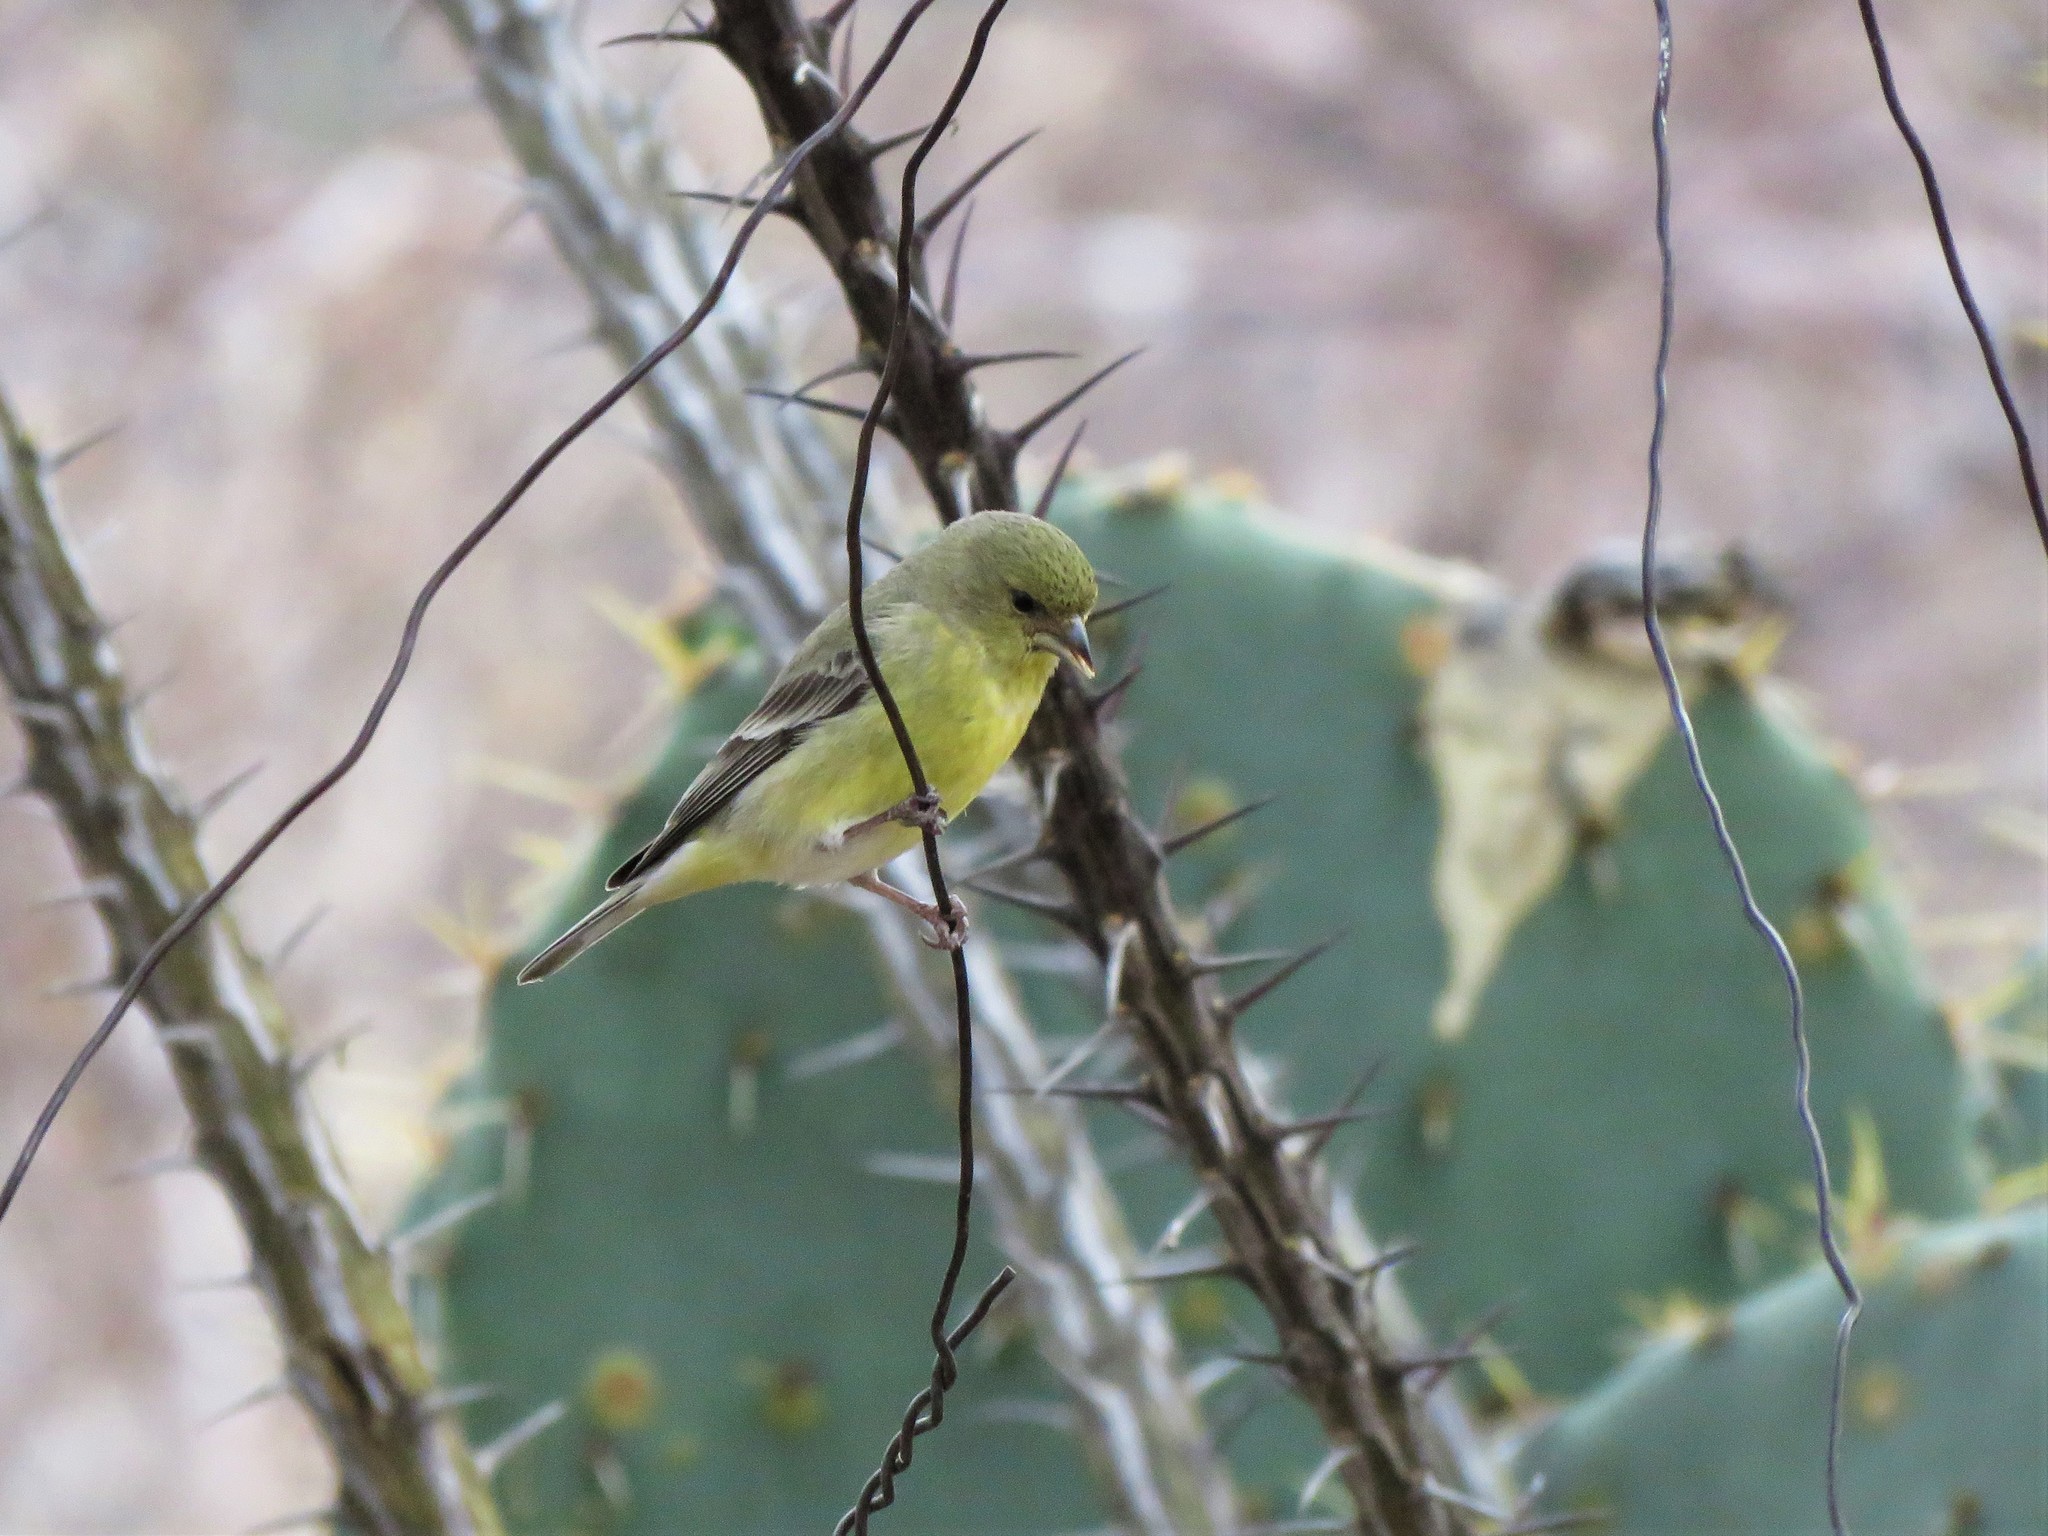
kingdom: Animalia
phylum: Chordata
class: Aves
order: Passeriformes
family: Fringillidae
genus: Spinus
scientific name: Spinus psaltria
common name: Lesser goldfinch
